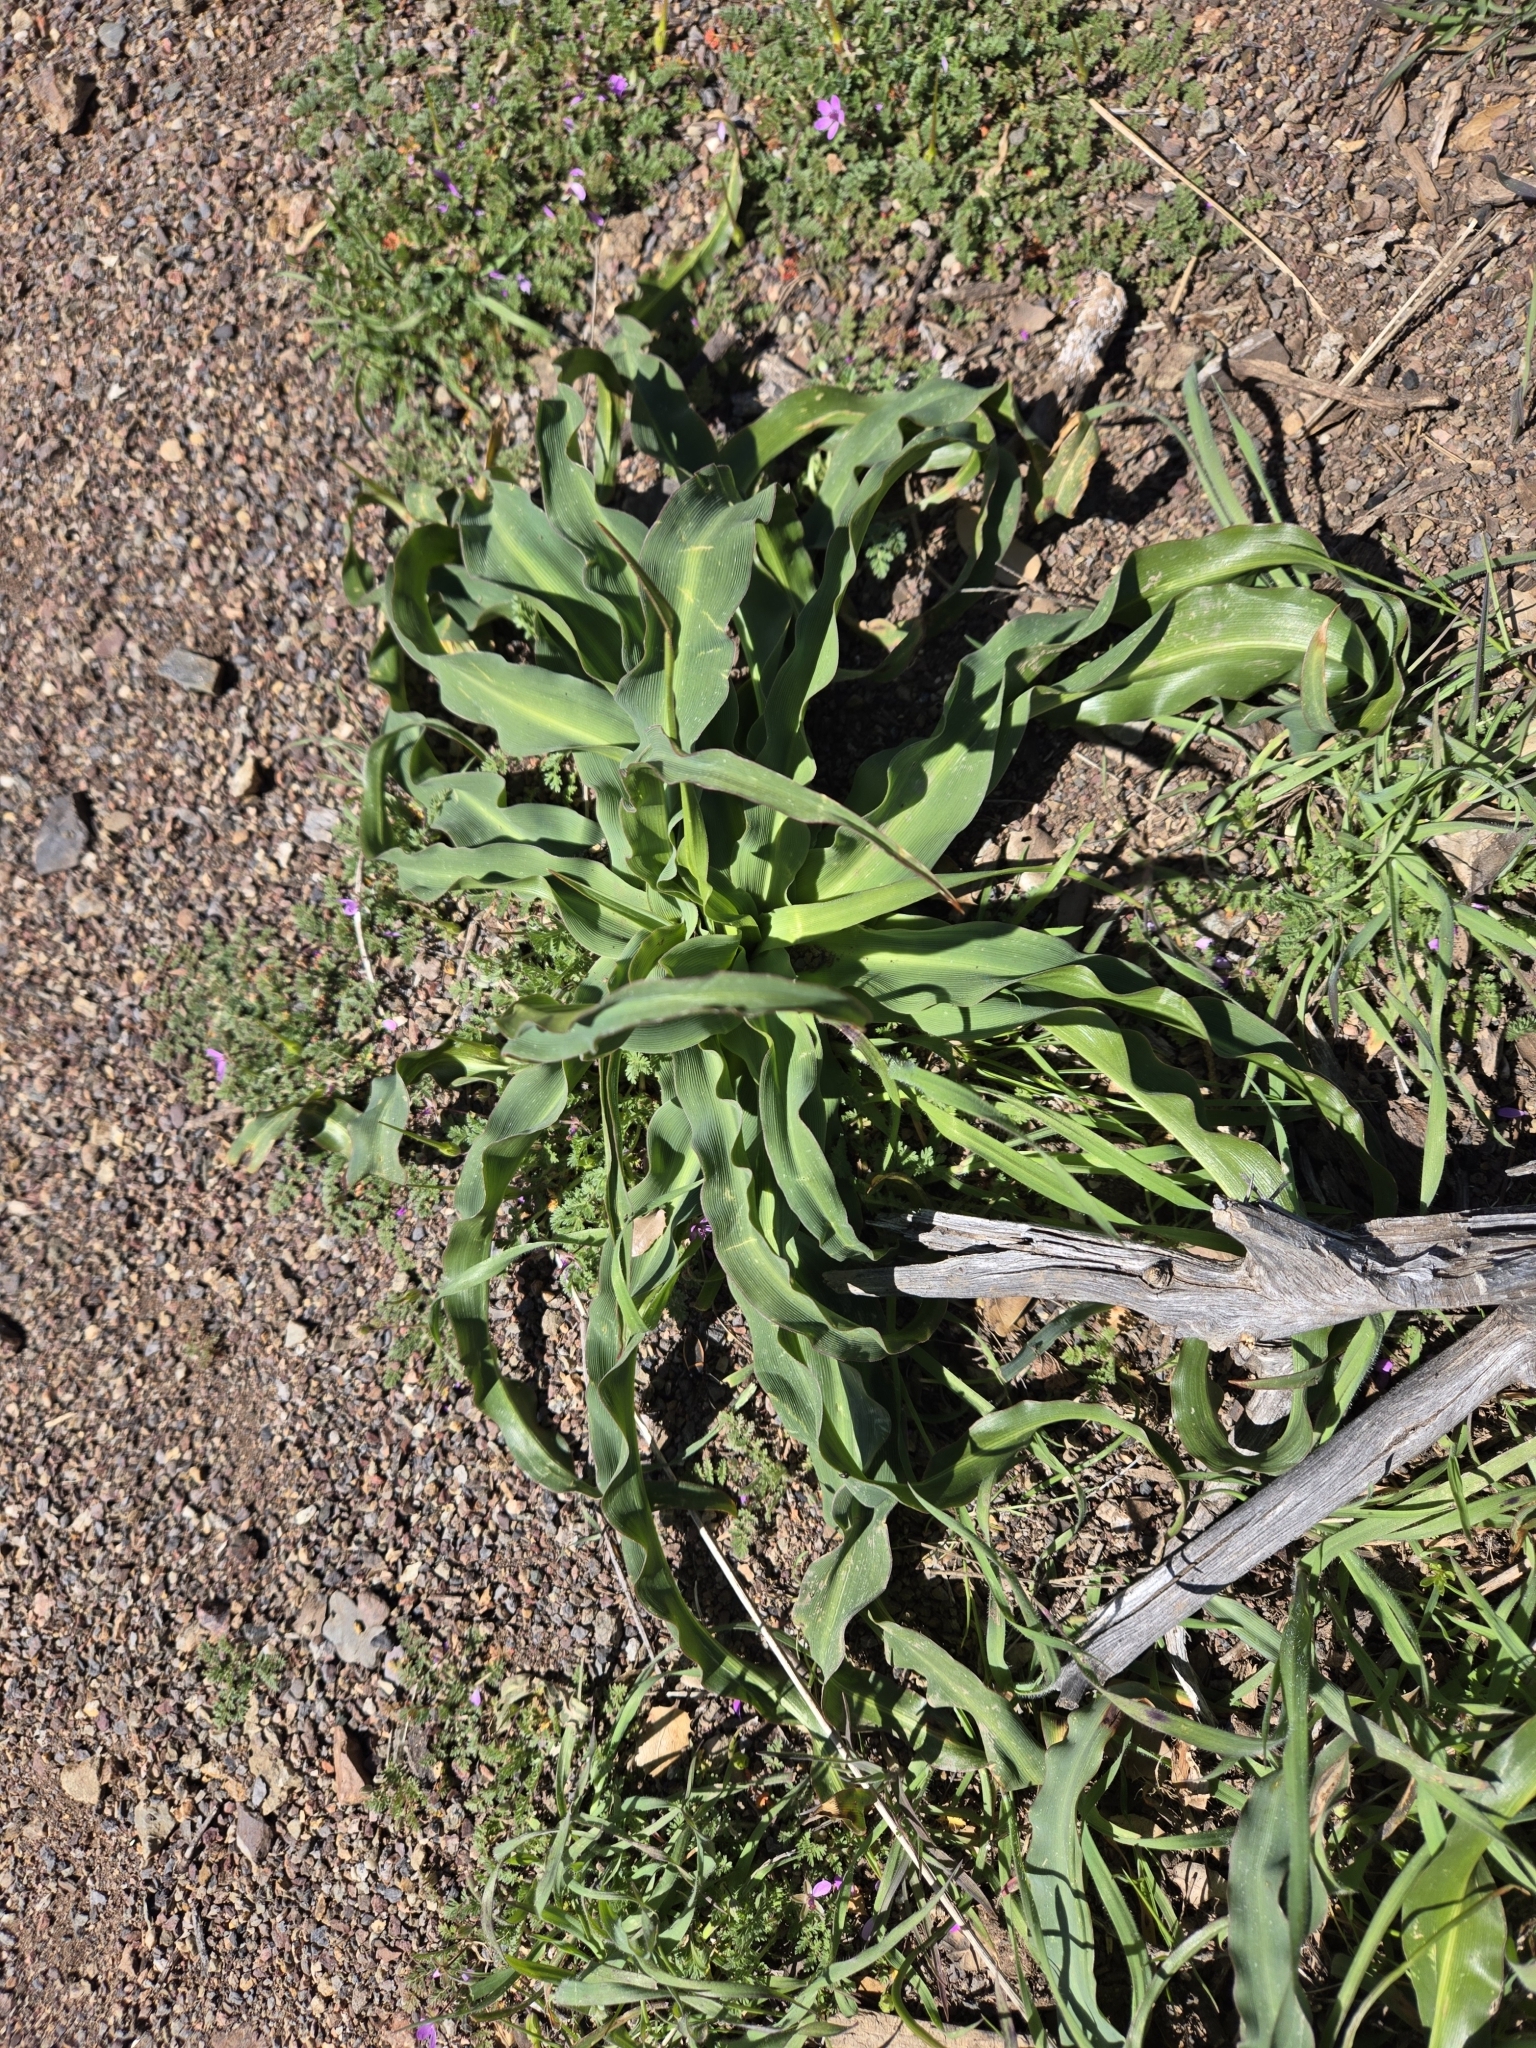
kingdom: Plantae
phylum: Tracheophyta
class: Liliopsida
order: Asparagales
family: Asparagaceae
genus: Chlorogalum
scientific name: Chlorogalum pomeridianum
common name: Amole
